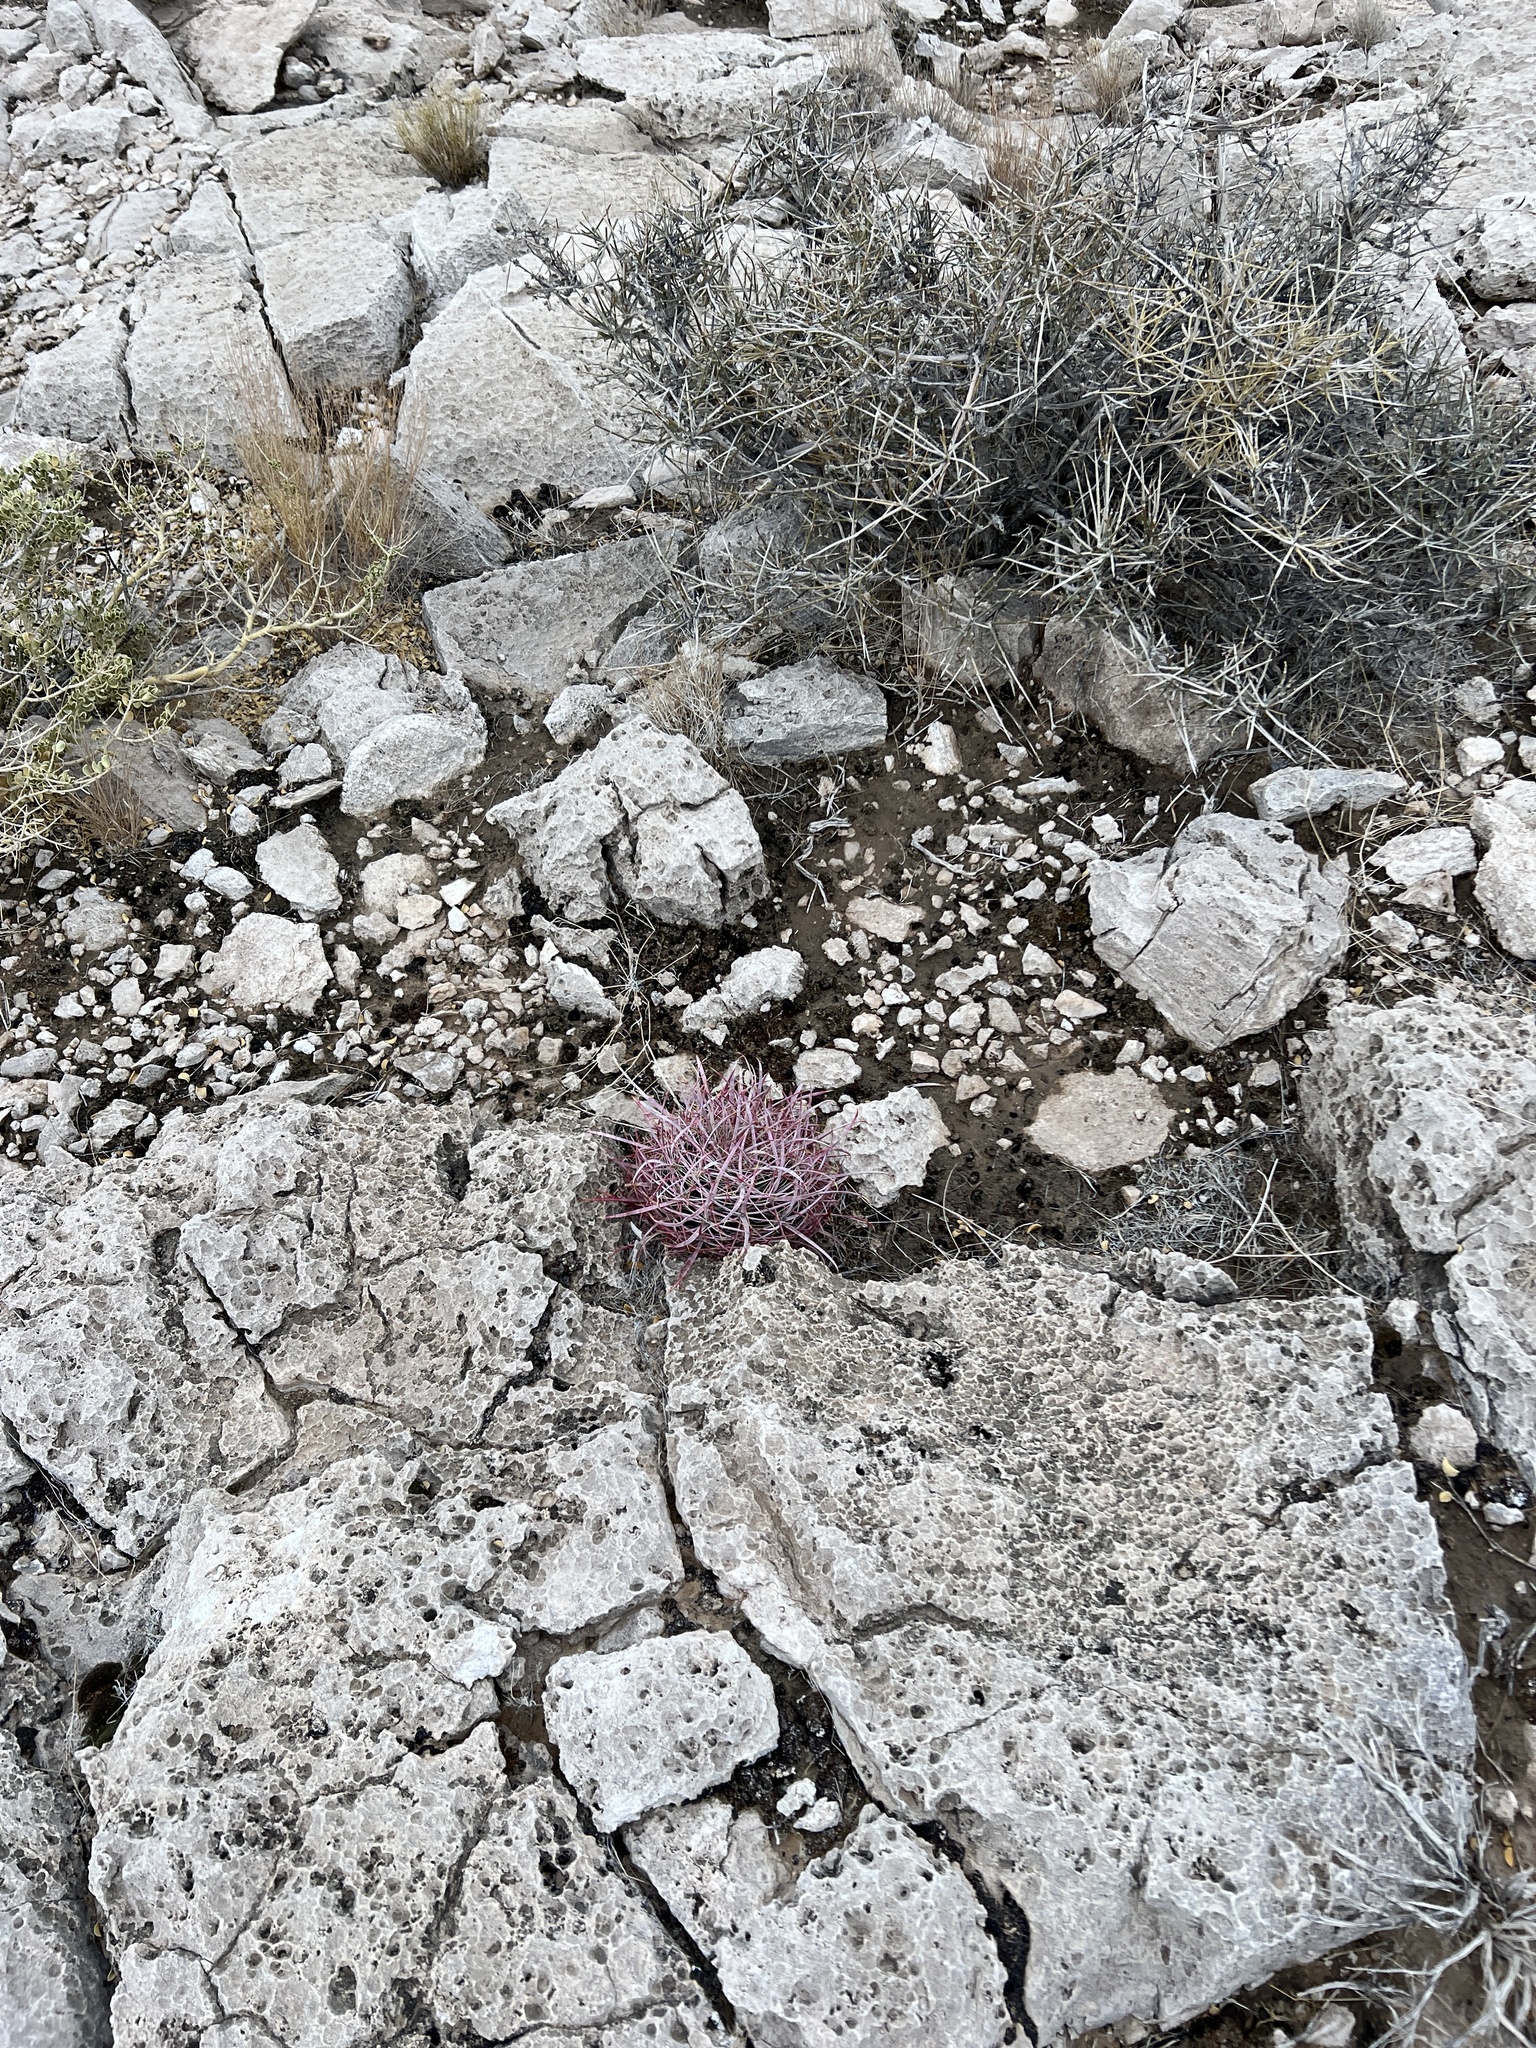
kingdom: Plantae
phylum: Tracheophyta
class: Magnoliopsida
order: Caryophyllales
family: Cactaceae
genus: Ferocactus
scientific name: Ferocactus cylindraceus
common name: California barrel cactus
